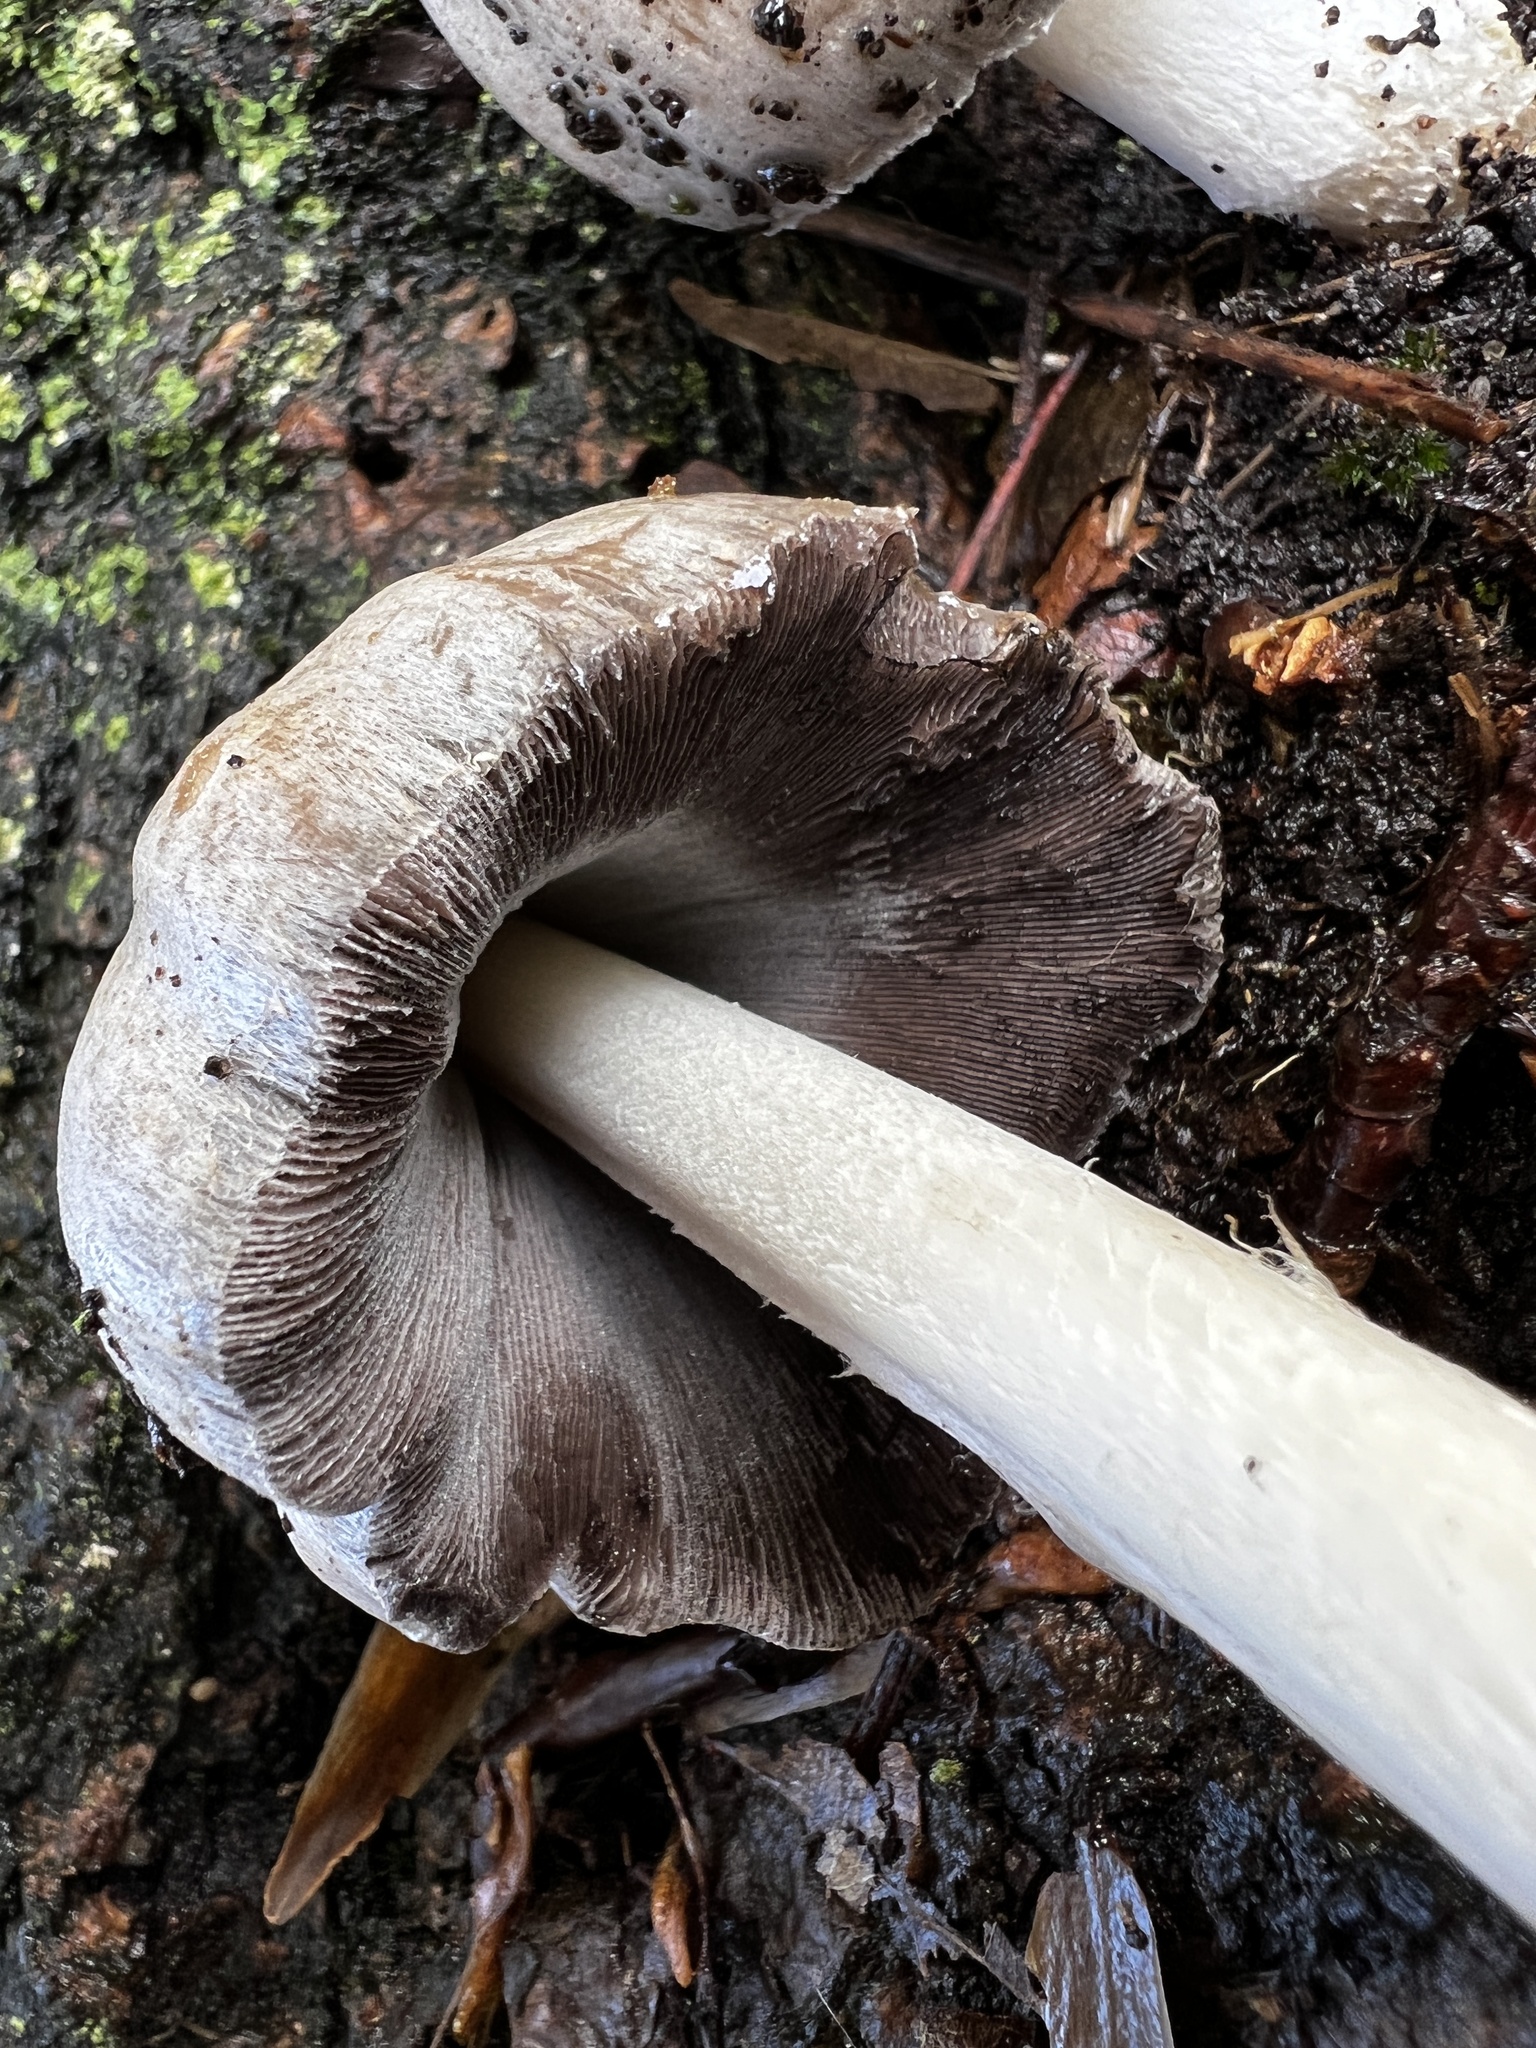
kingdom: Fungi
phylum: Basidiomycota
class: Agaricomycetes
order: Agaricales
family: Psathyrellaceae
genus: Coprinopsis
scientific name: Coprinopsis atramentaria
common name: Common ink-cap
